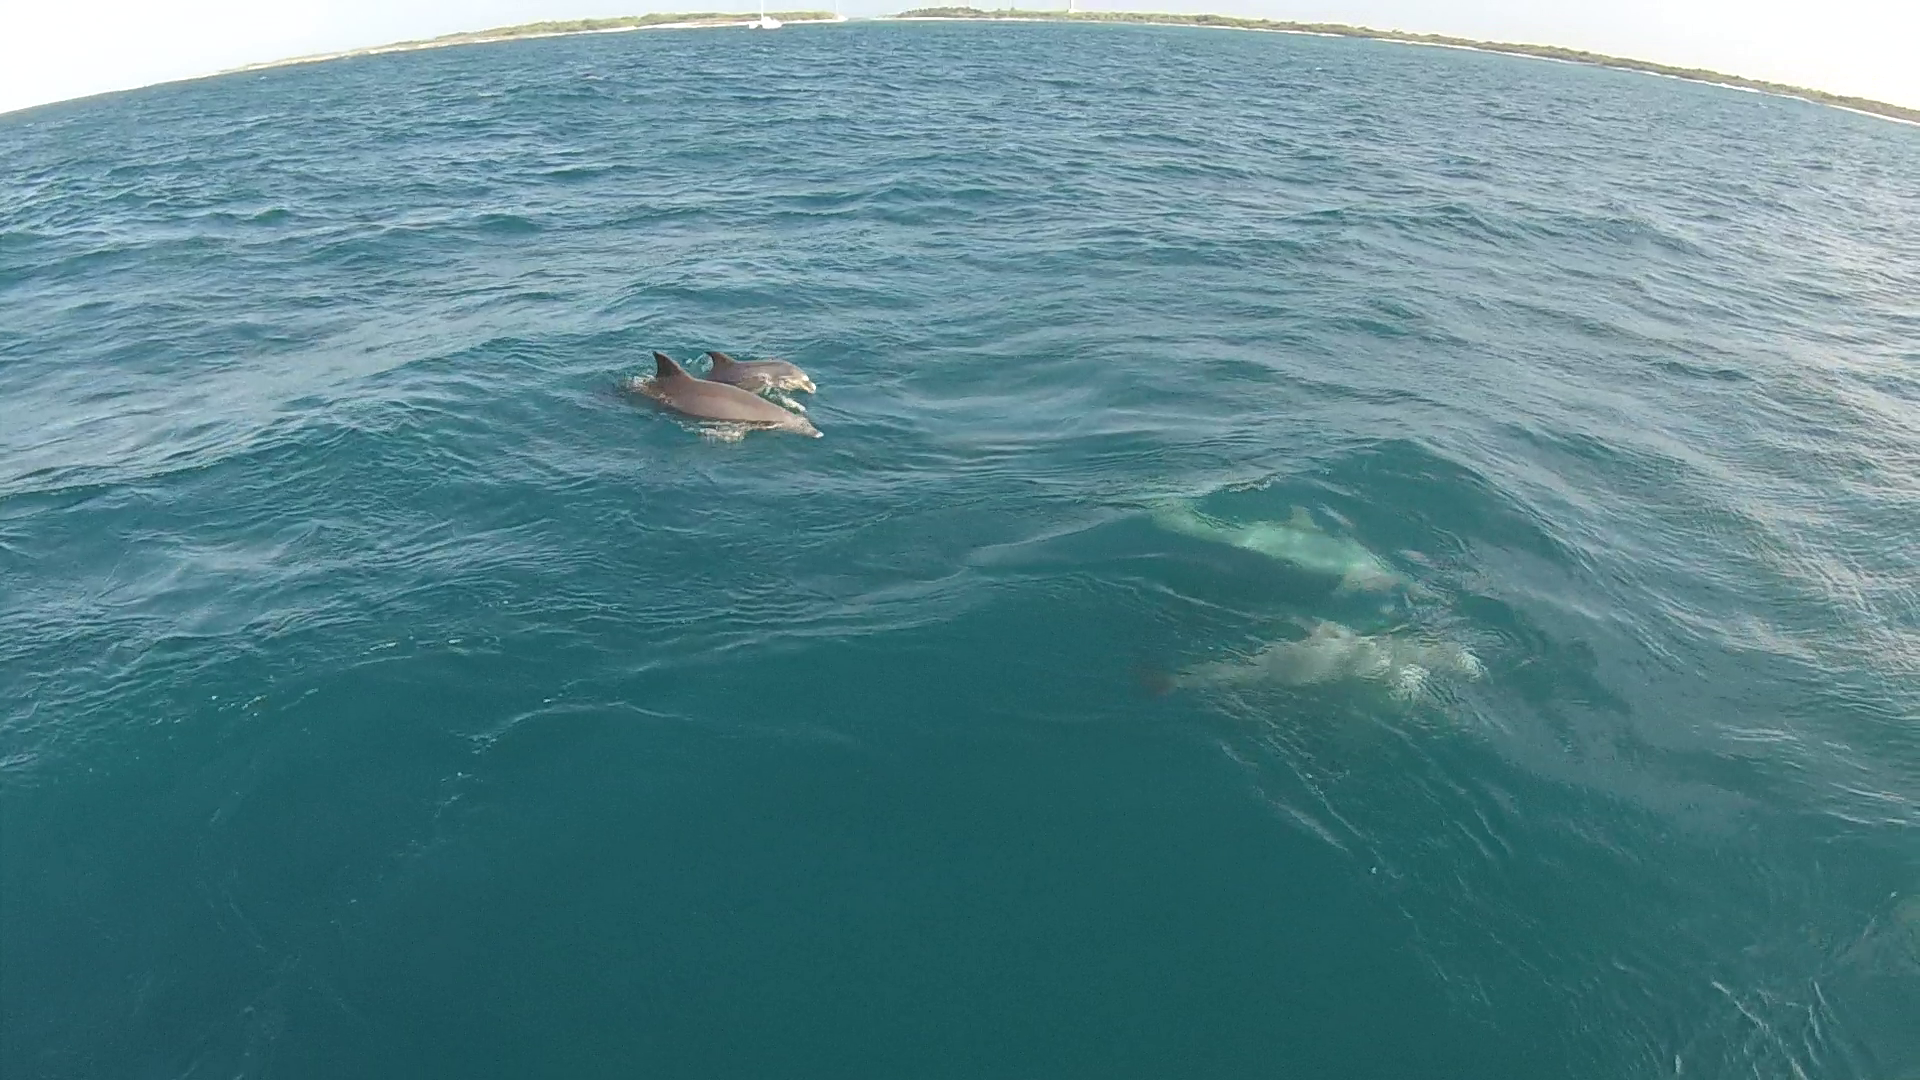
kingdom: Animalia
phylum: Chordata
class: Mammalia
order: Cetacea
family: Delphinidae
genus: Tursiops
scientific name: Tursiops truncatus
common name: Bottlenose dolphin
